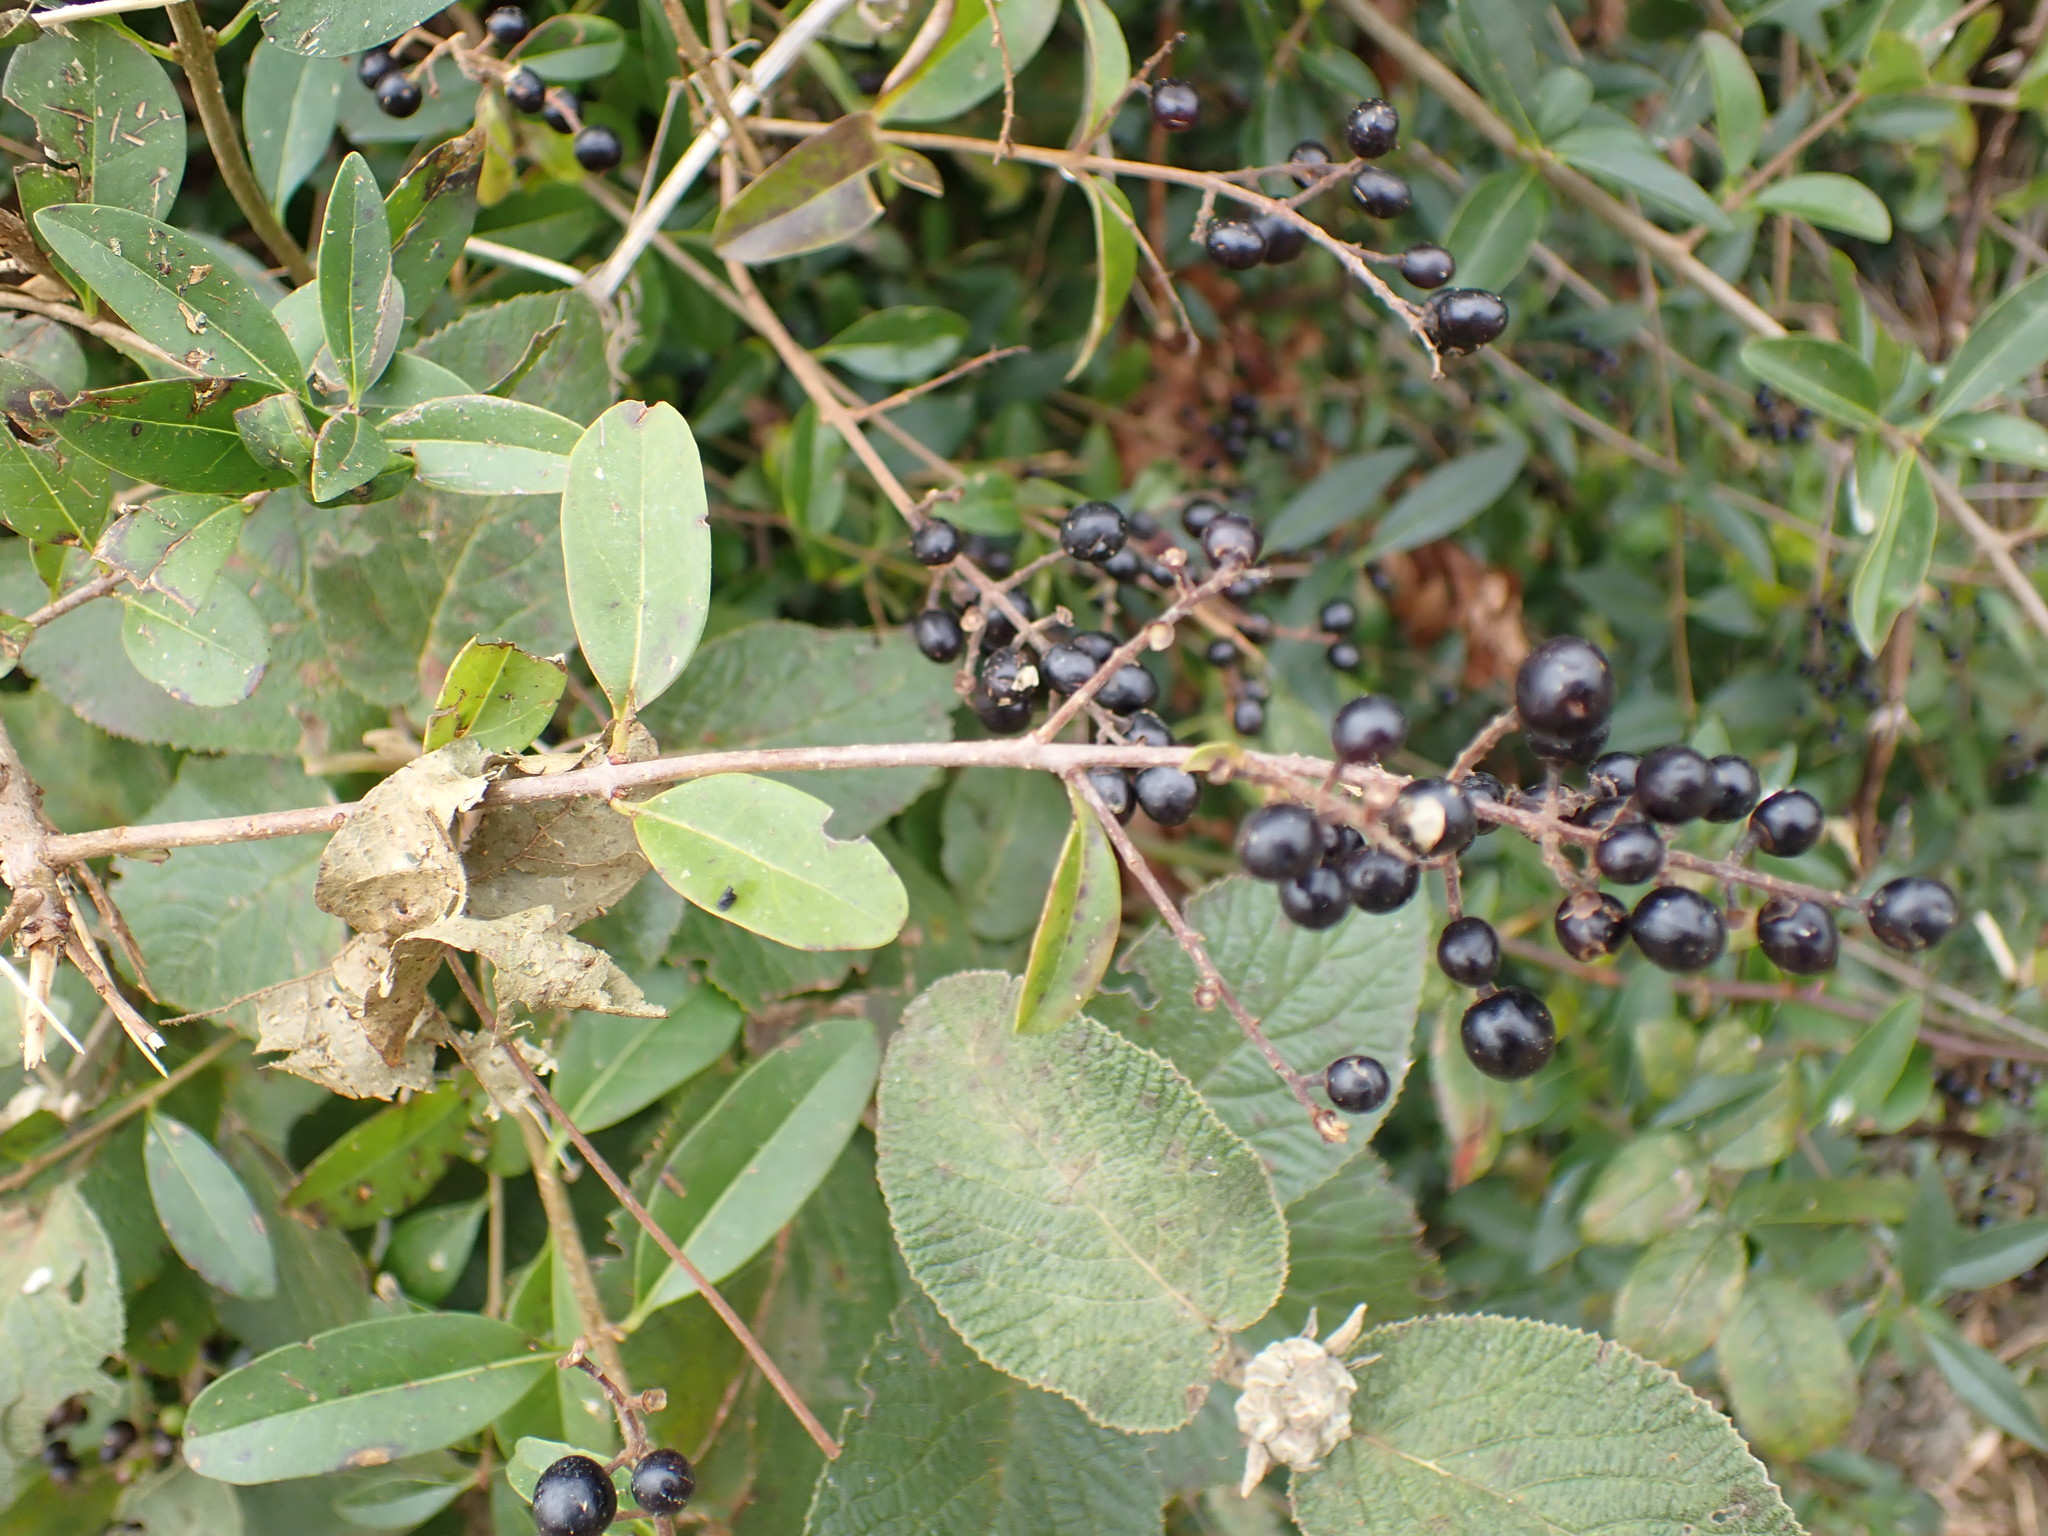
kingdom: Plantae
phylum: Tracheophyta
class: Magnoliopsida
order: Lamiales
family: Oleaceae
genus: Ligustrum
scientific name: Ligustrum vulgare
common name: Wild privet
